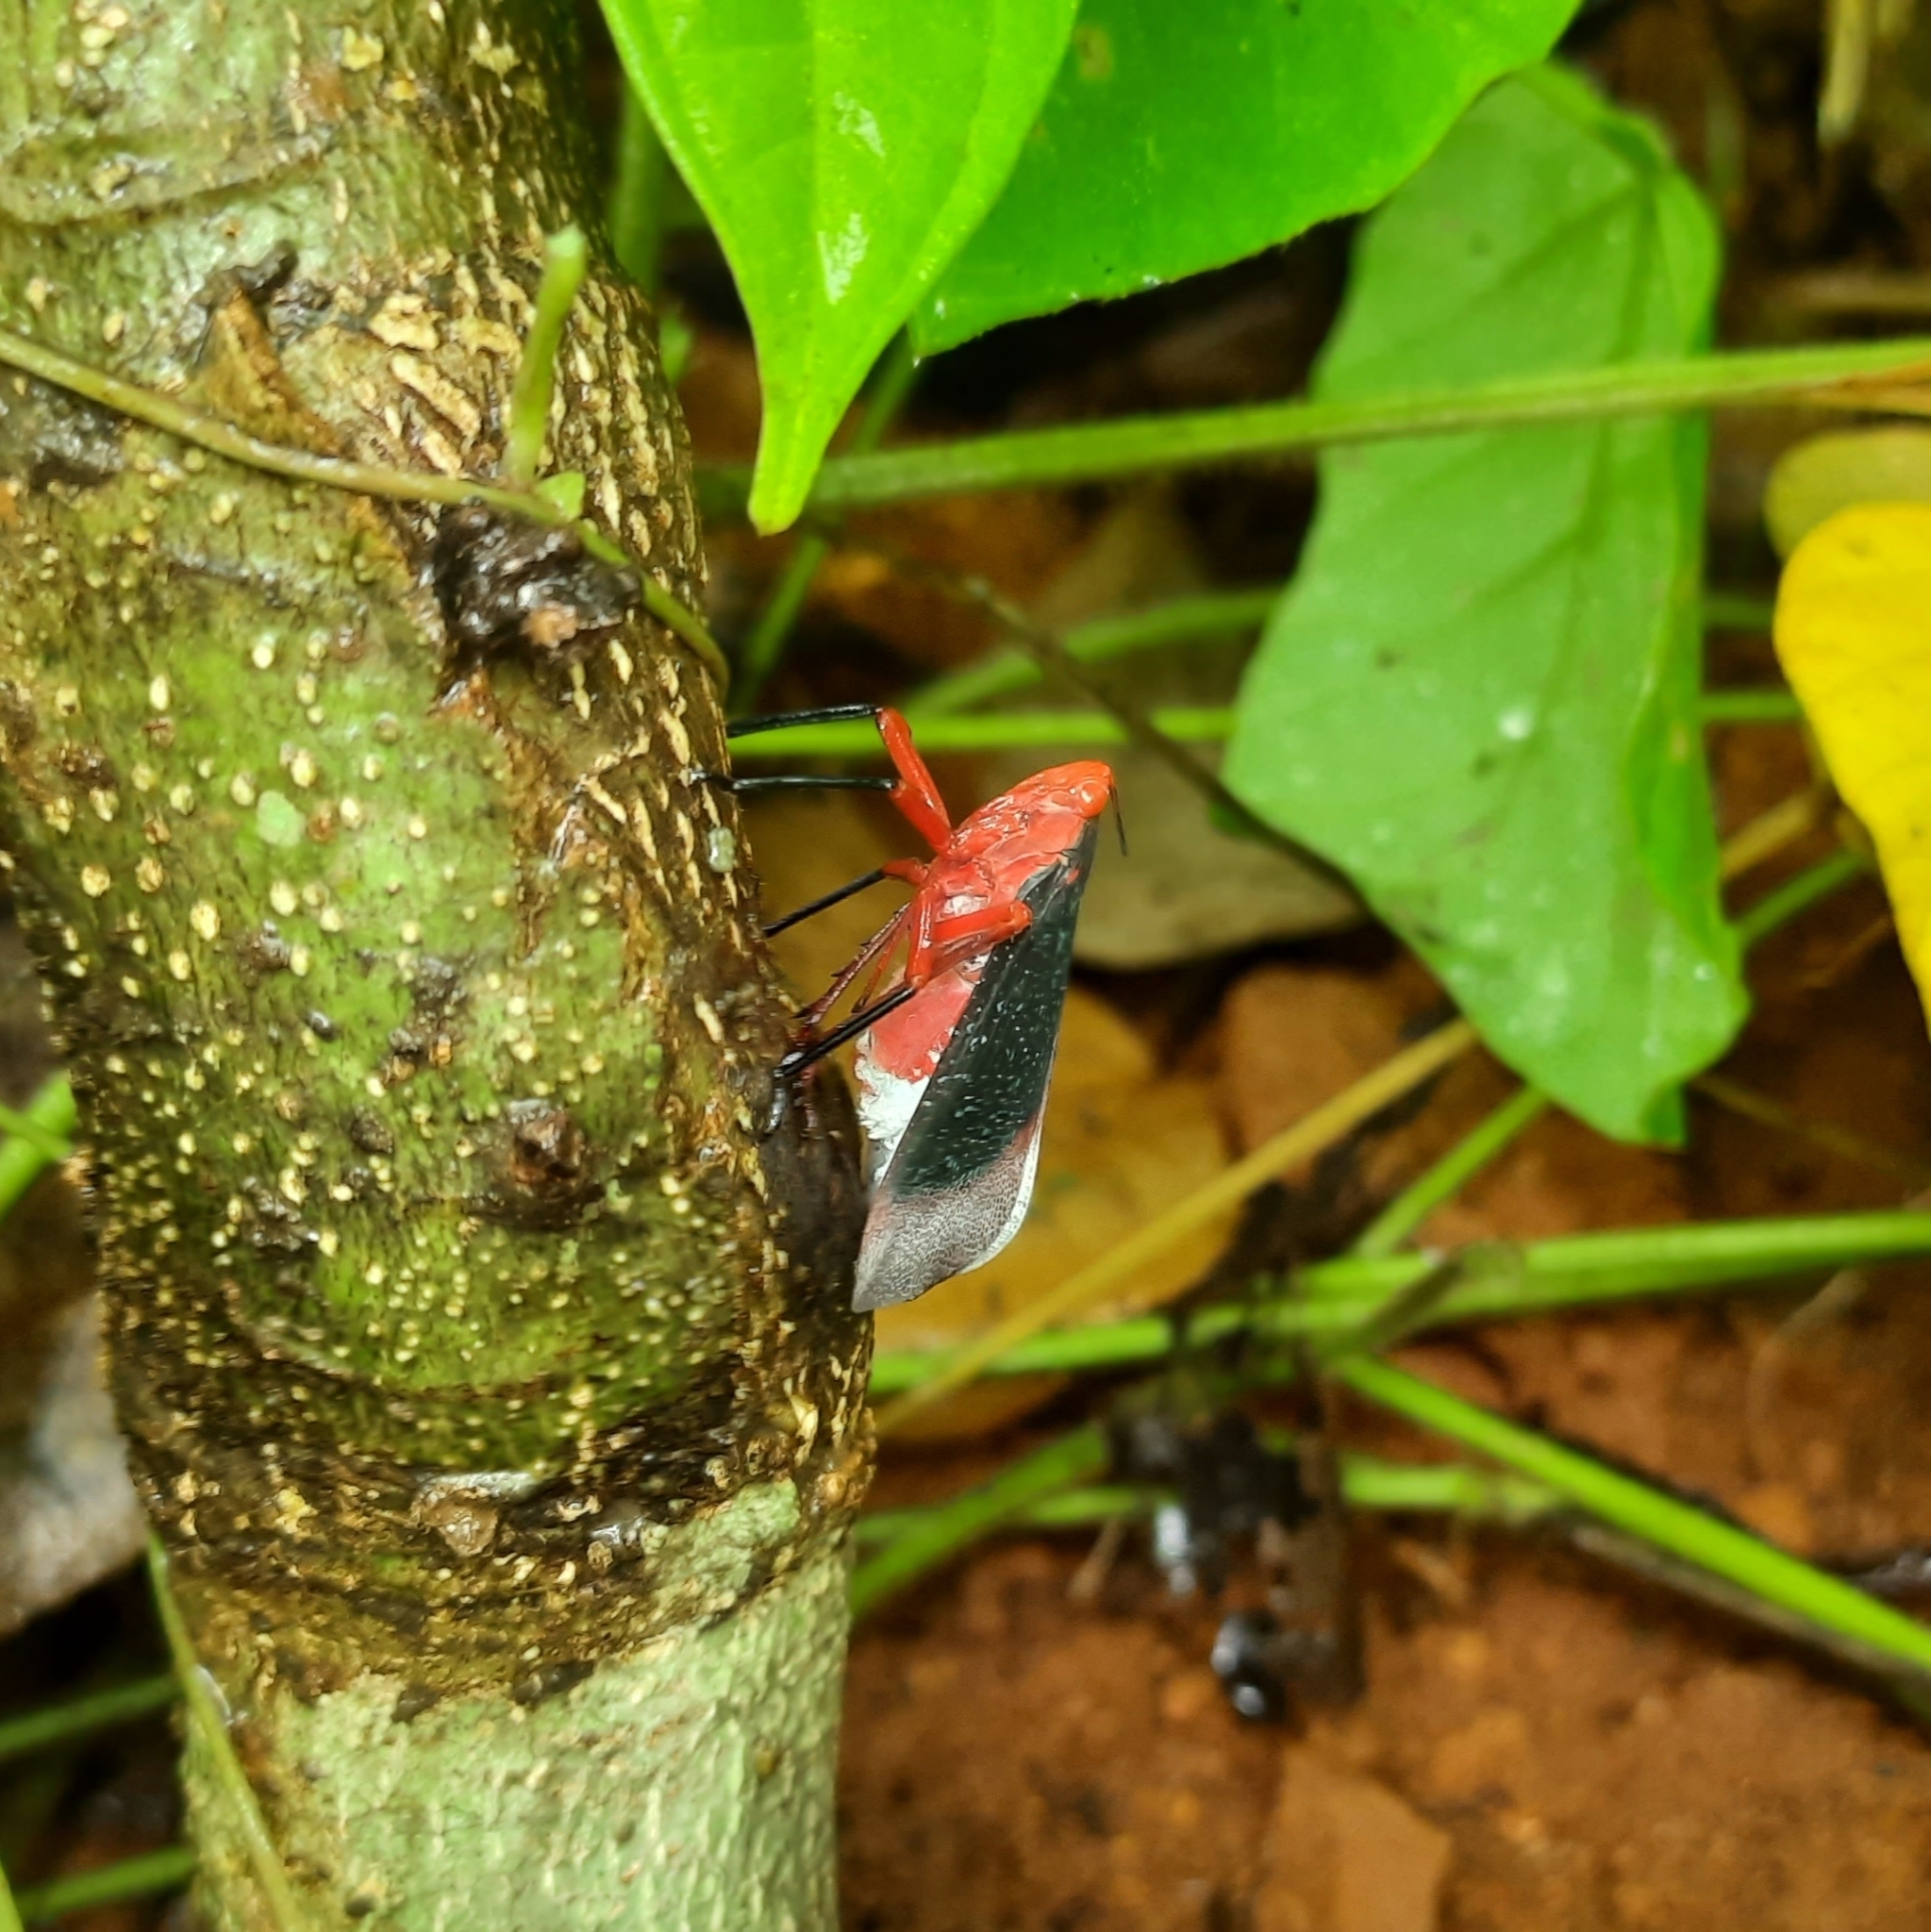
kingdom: Animalia
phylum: Arthropoda
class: Insecta
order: Hemiptera
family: Fulgoridae
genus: Kalidasa
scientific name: Kalidasa lanata
